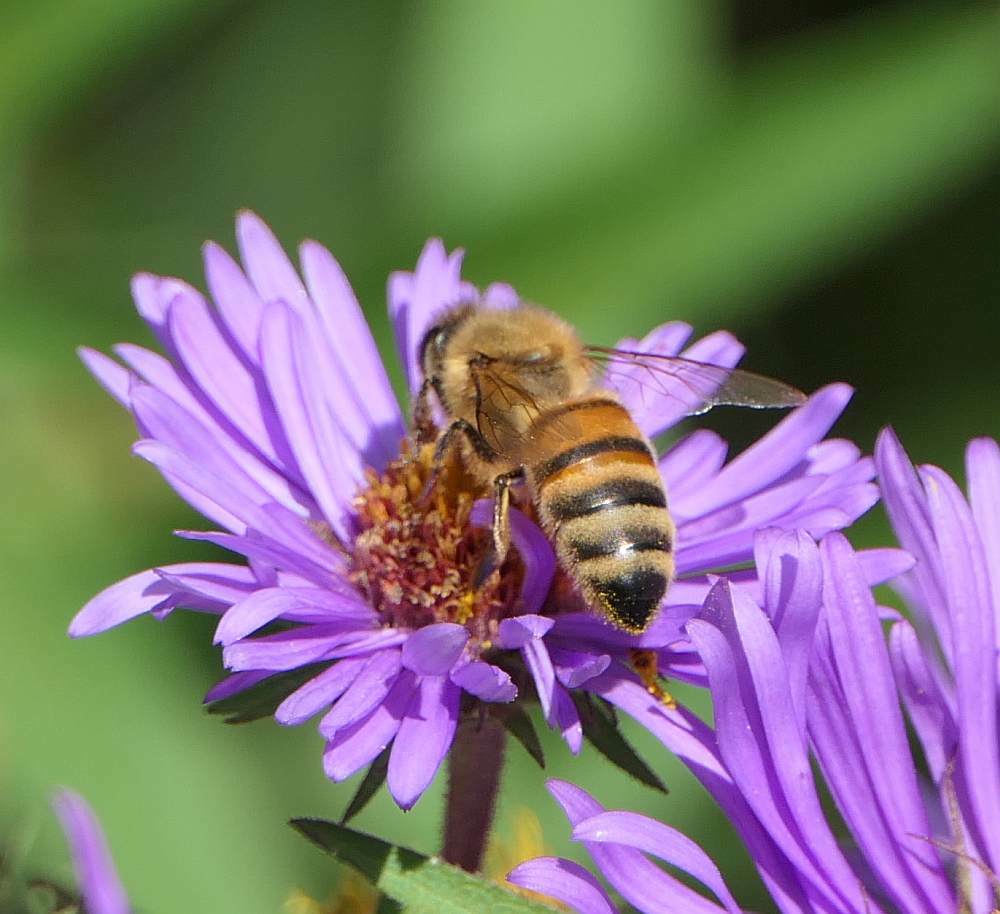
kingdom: Animalia
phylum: Arthropoda
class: Insecta
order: Hymenoptera
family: Apidae
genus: Apis
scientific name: Apis mellifera
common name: Honey bee
